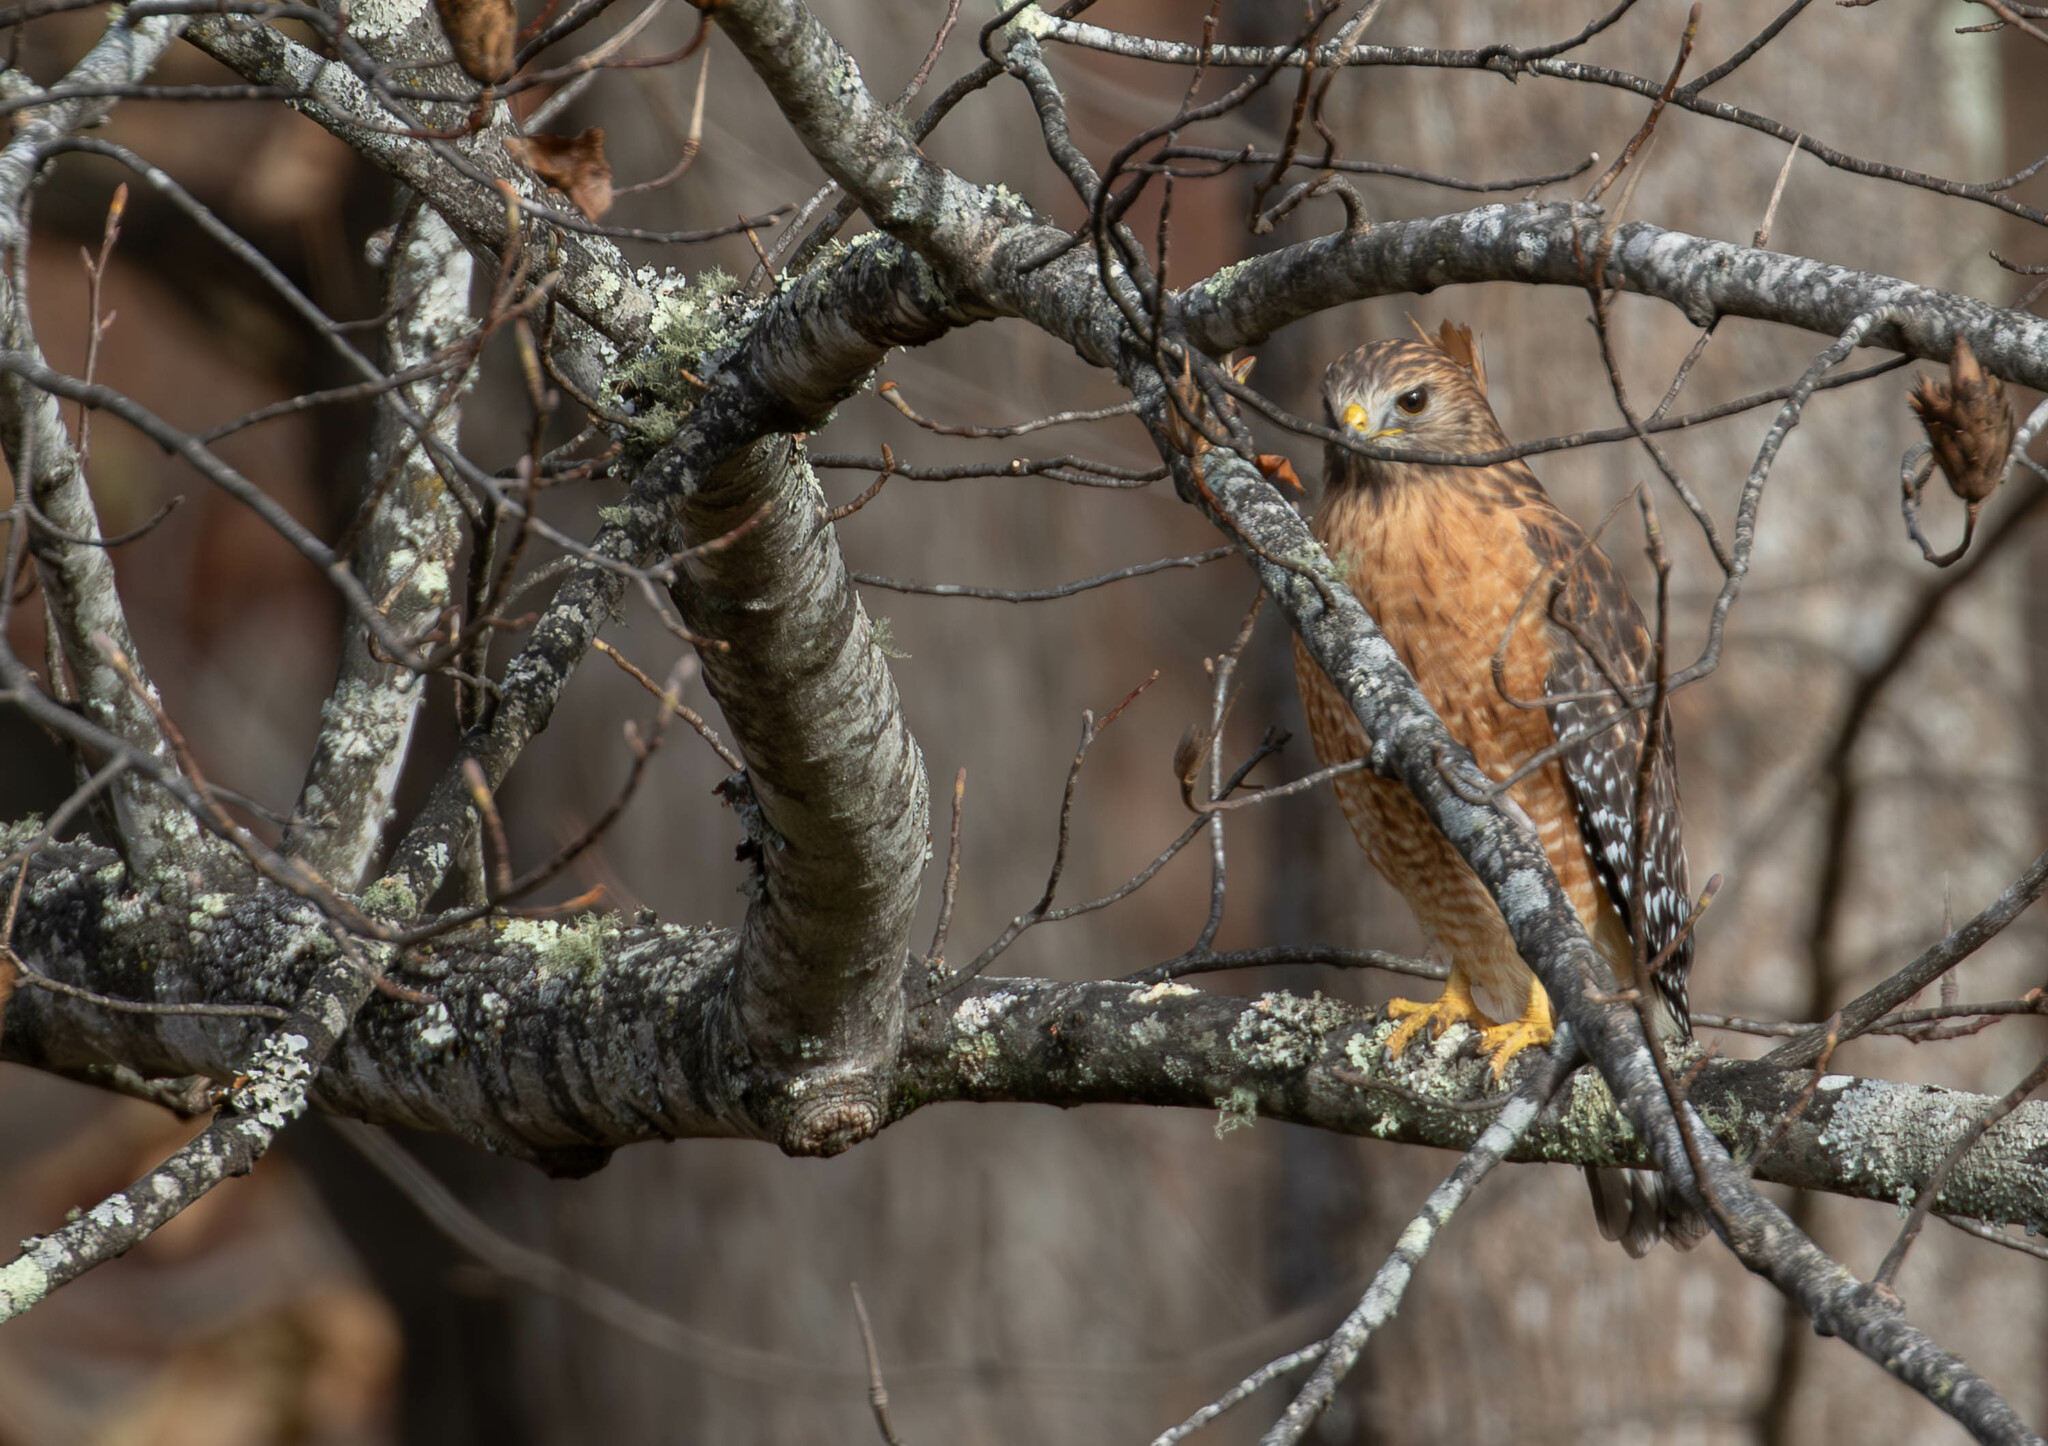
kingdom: Animalia
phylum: Chordata
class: Aves
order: Accipitriformes
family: Accipitridae
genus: Buteo
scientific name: Buteo lineatus
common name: Red-shouldered hawk
